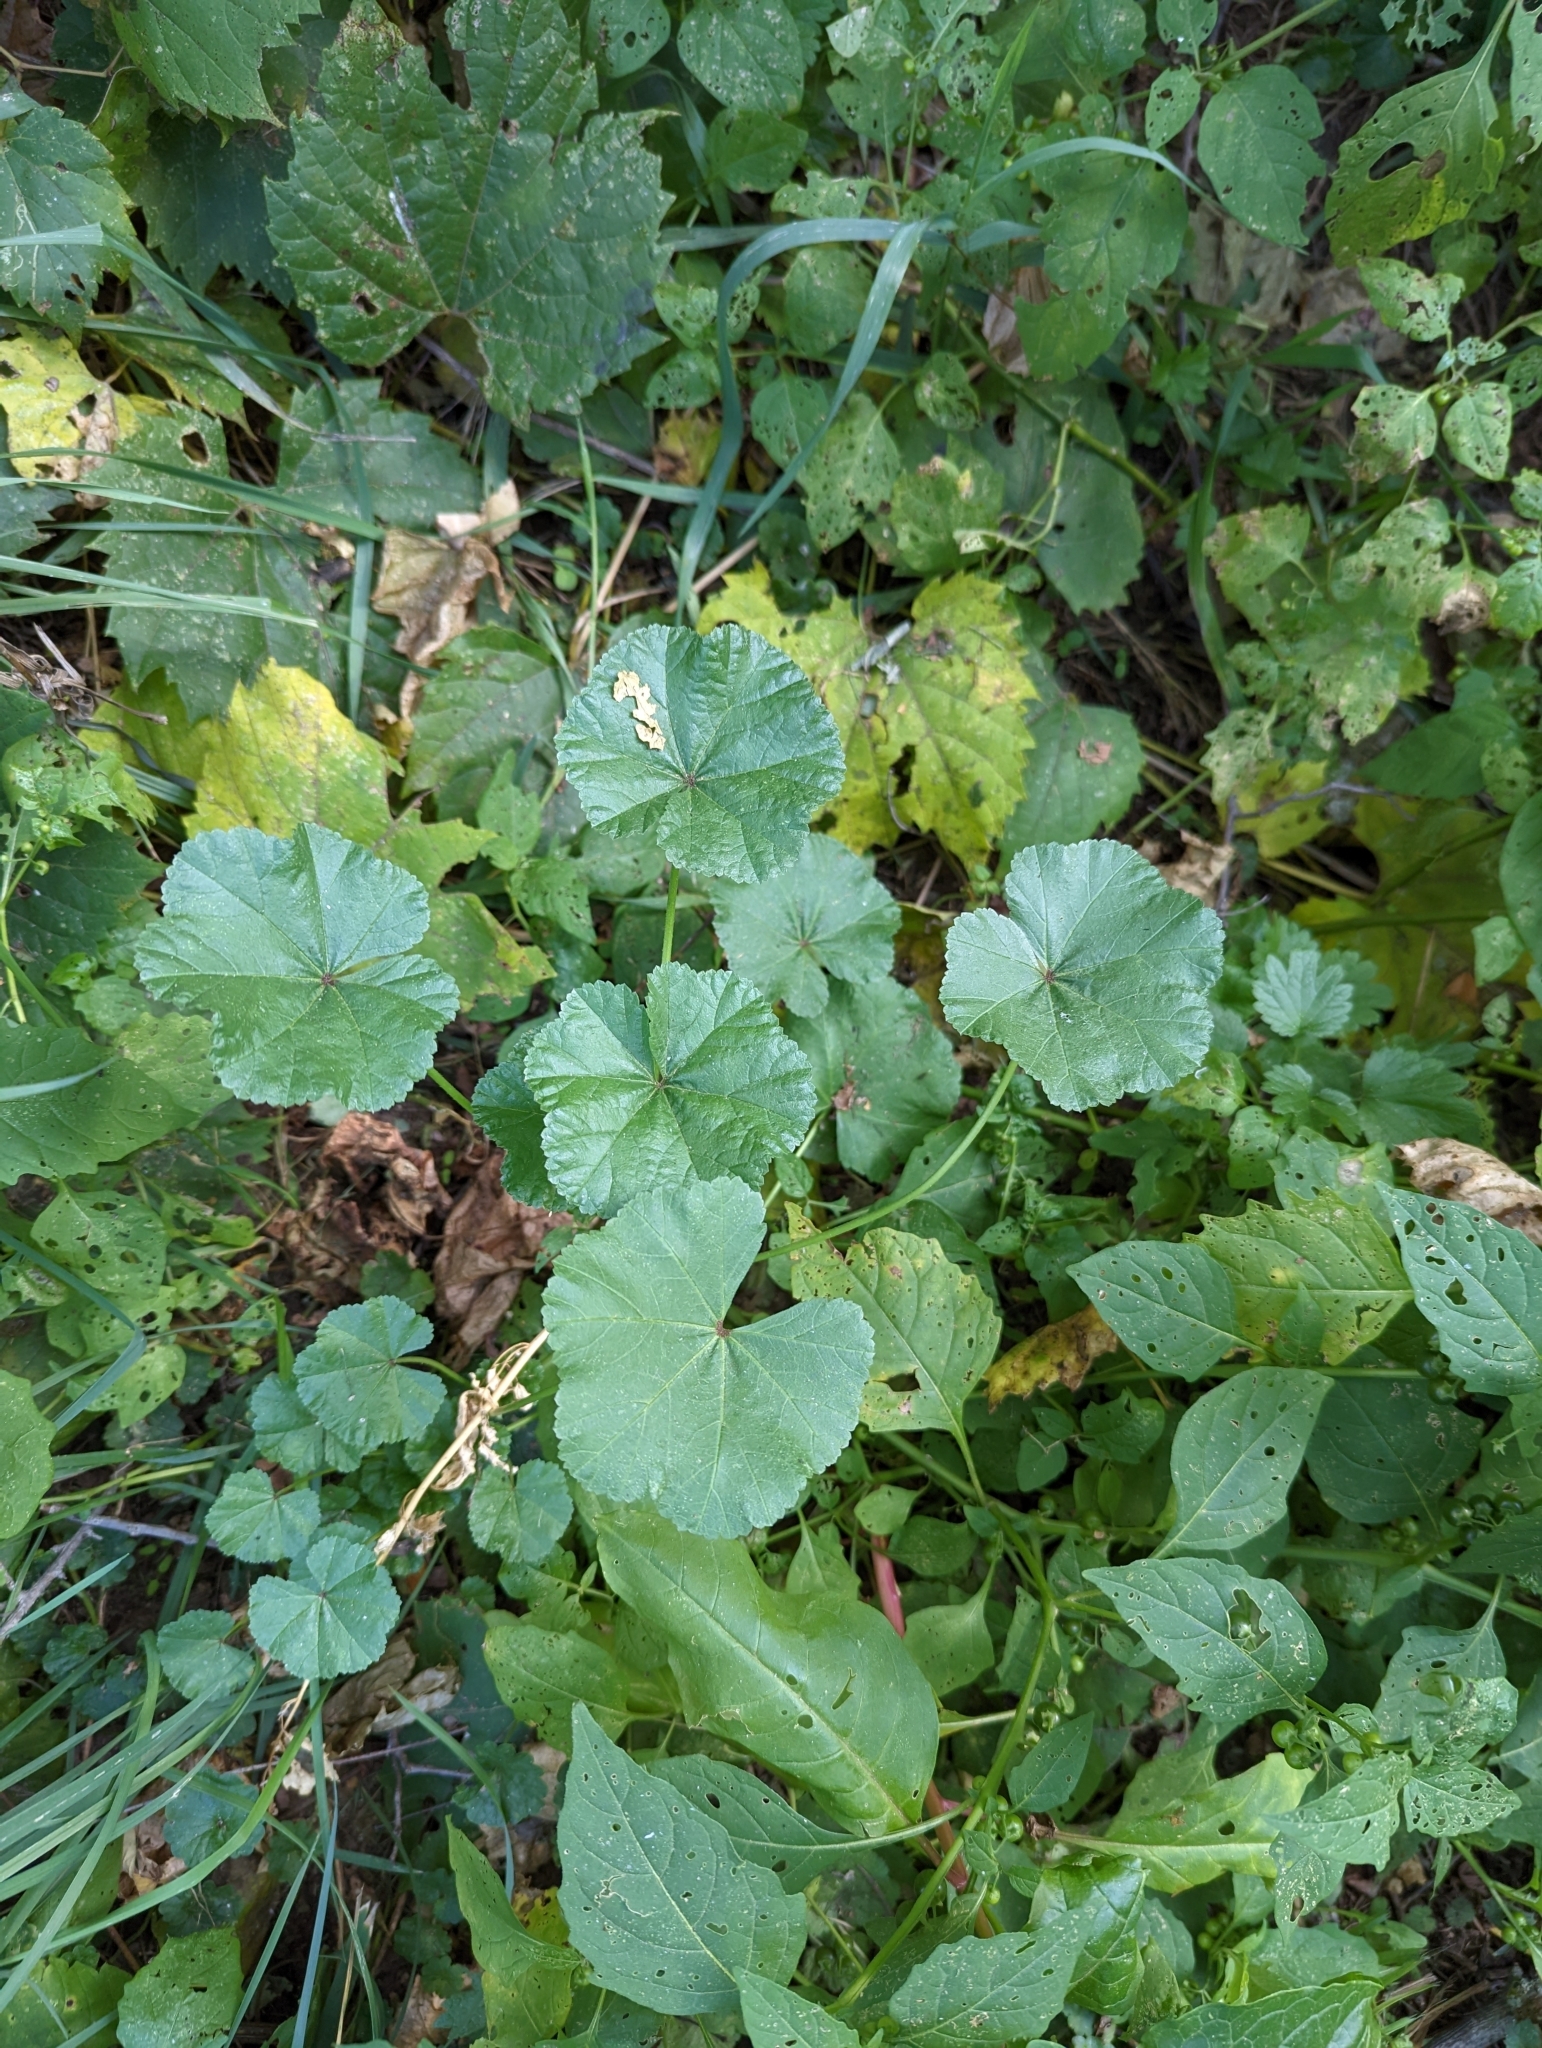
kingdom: Plantae
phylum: Tracheophyta
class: Magnoliopsida
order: Malvales
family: Malvaceae
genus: Malva
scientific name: Malva neglecta
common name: Common mallow
